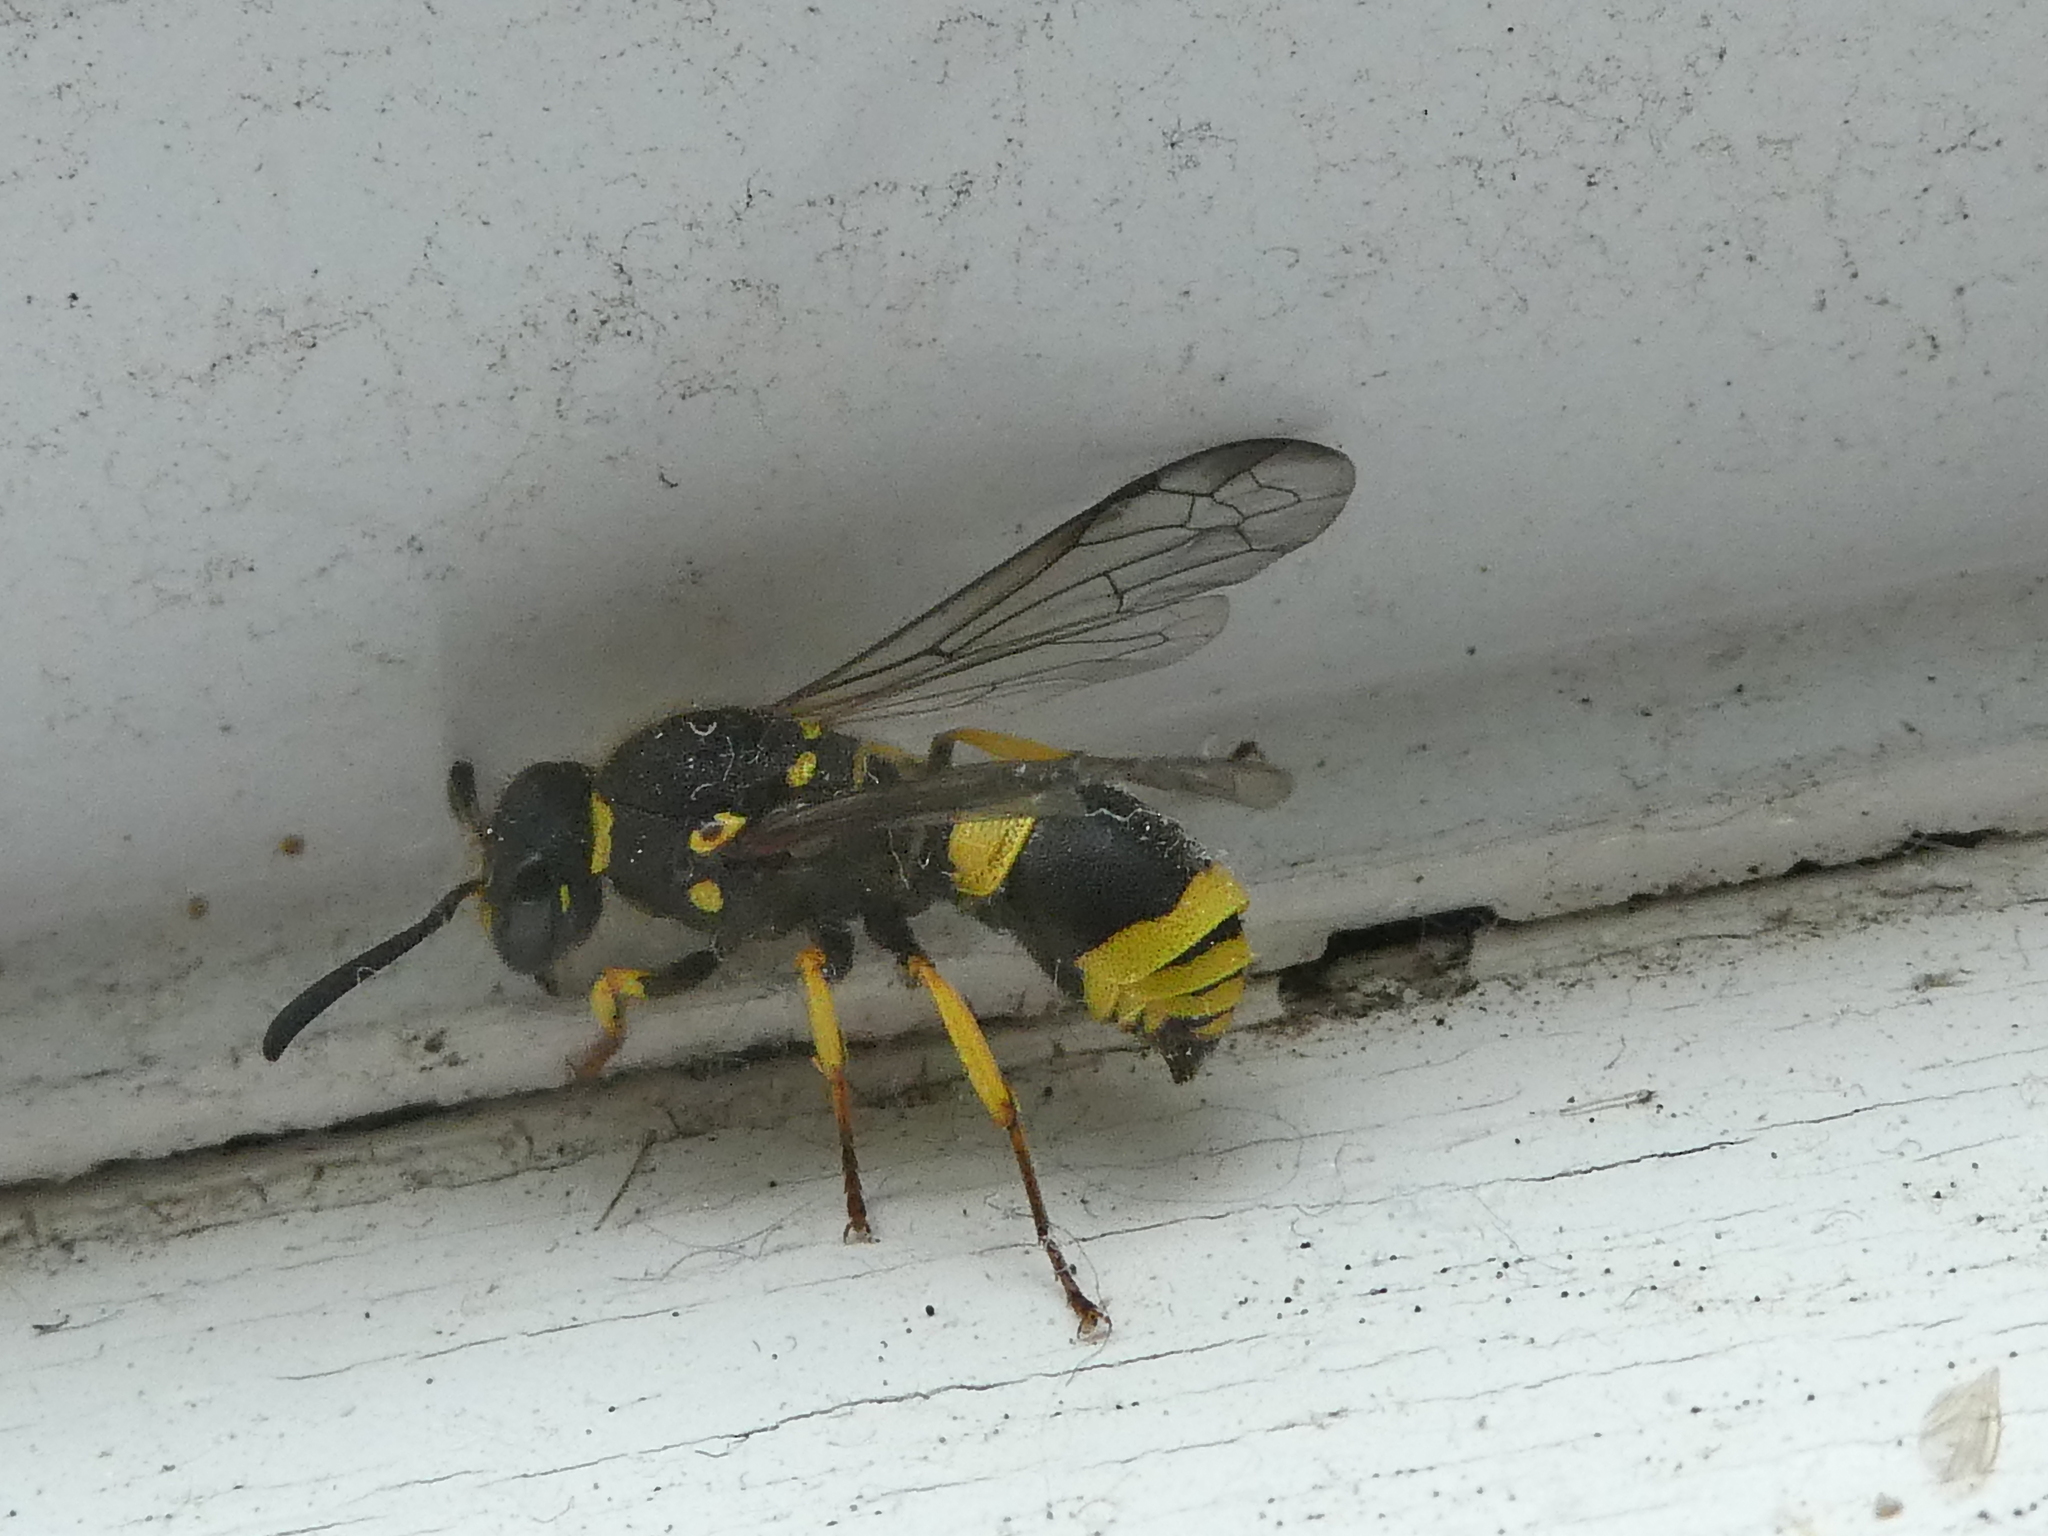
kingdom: Animalia
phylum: Arthropoda
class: Insecta
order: Hymenoptera
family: Vespidae
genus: Ancistrocerus
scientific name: Ancistrocerus gazella
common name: European tube wasp
